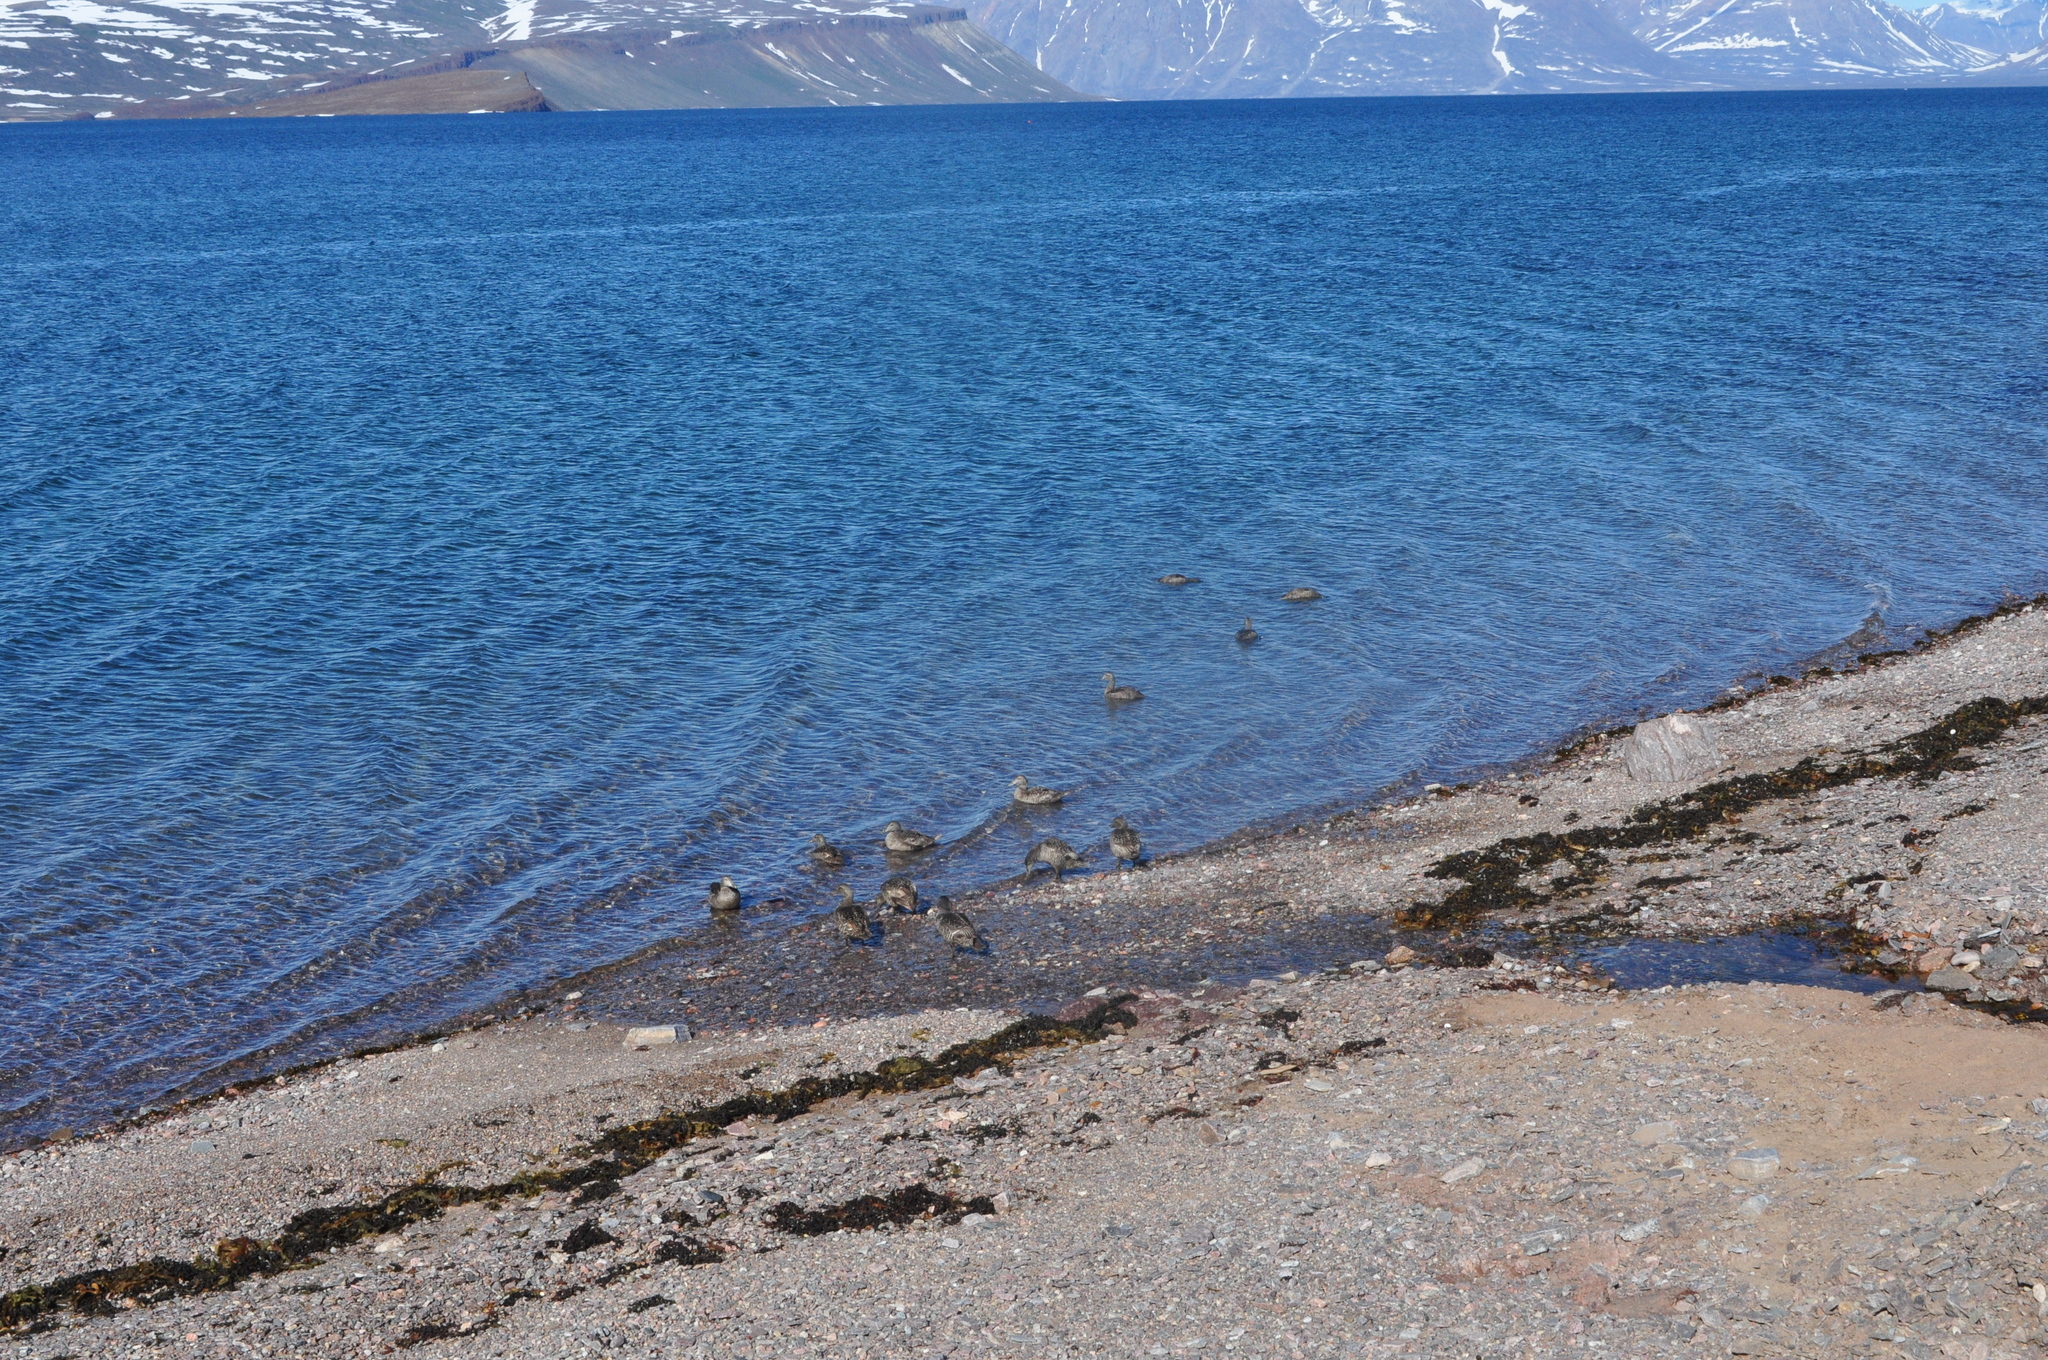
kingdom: Animalia
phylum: Chordata
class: Aves
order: Anseriformes
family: Anatidae
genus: Somateria
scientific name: Somateria mollissima
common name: Common eider
